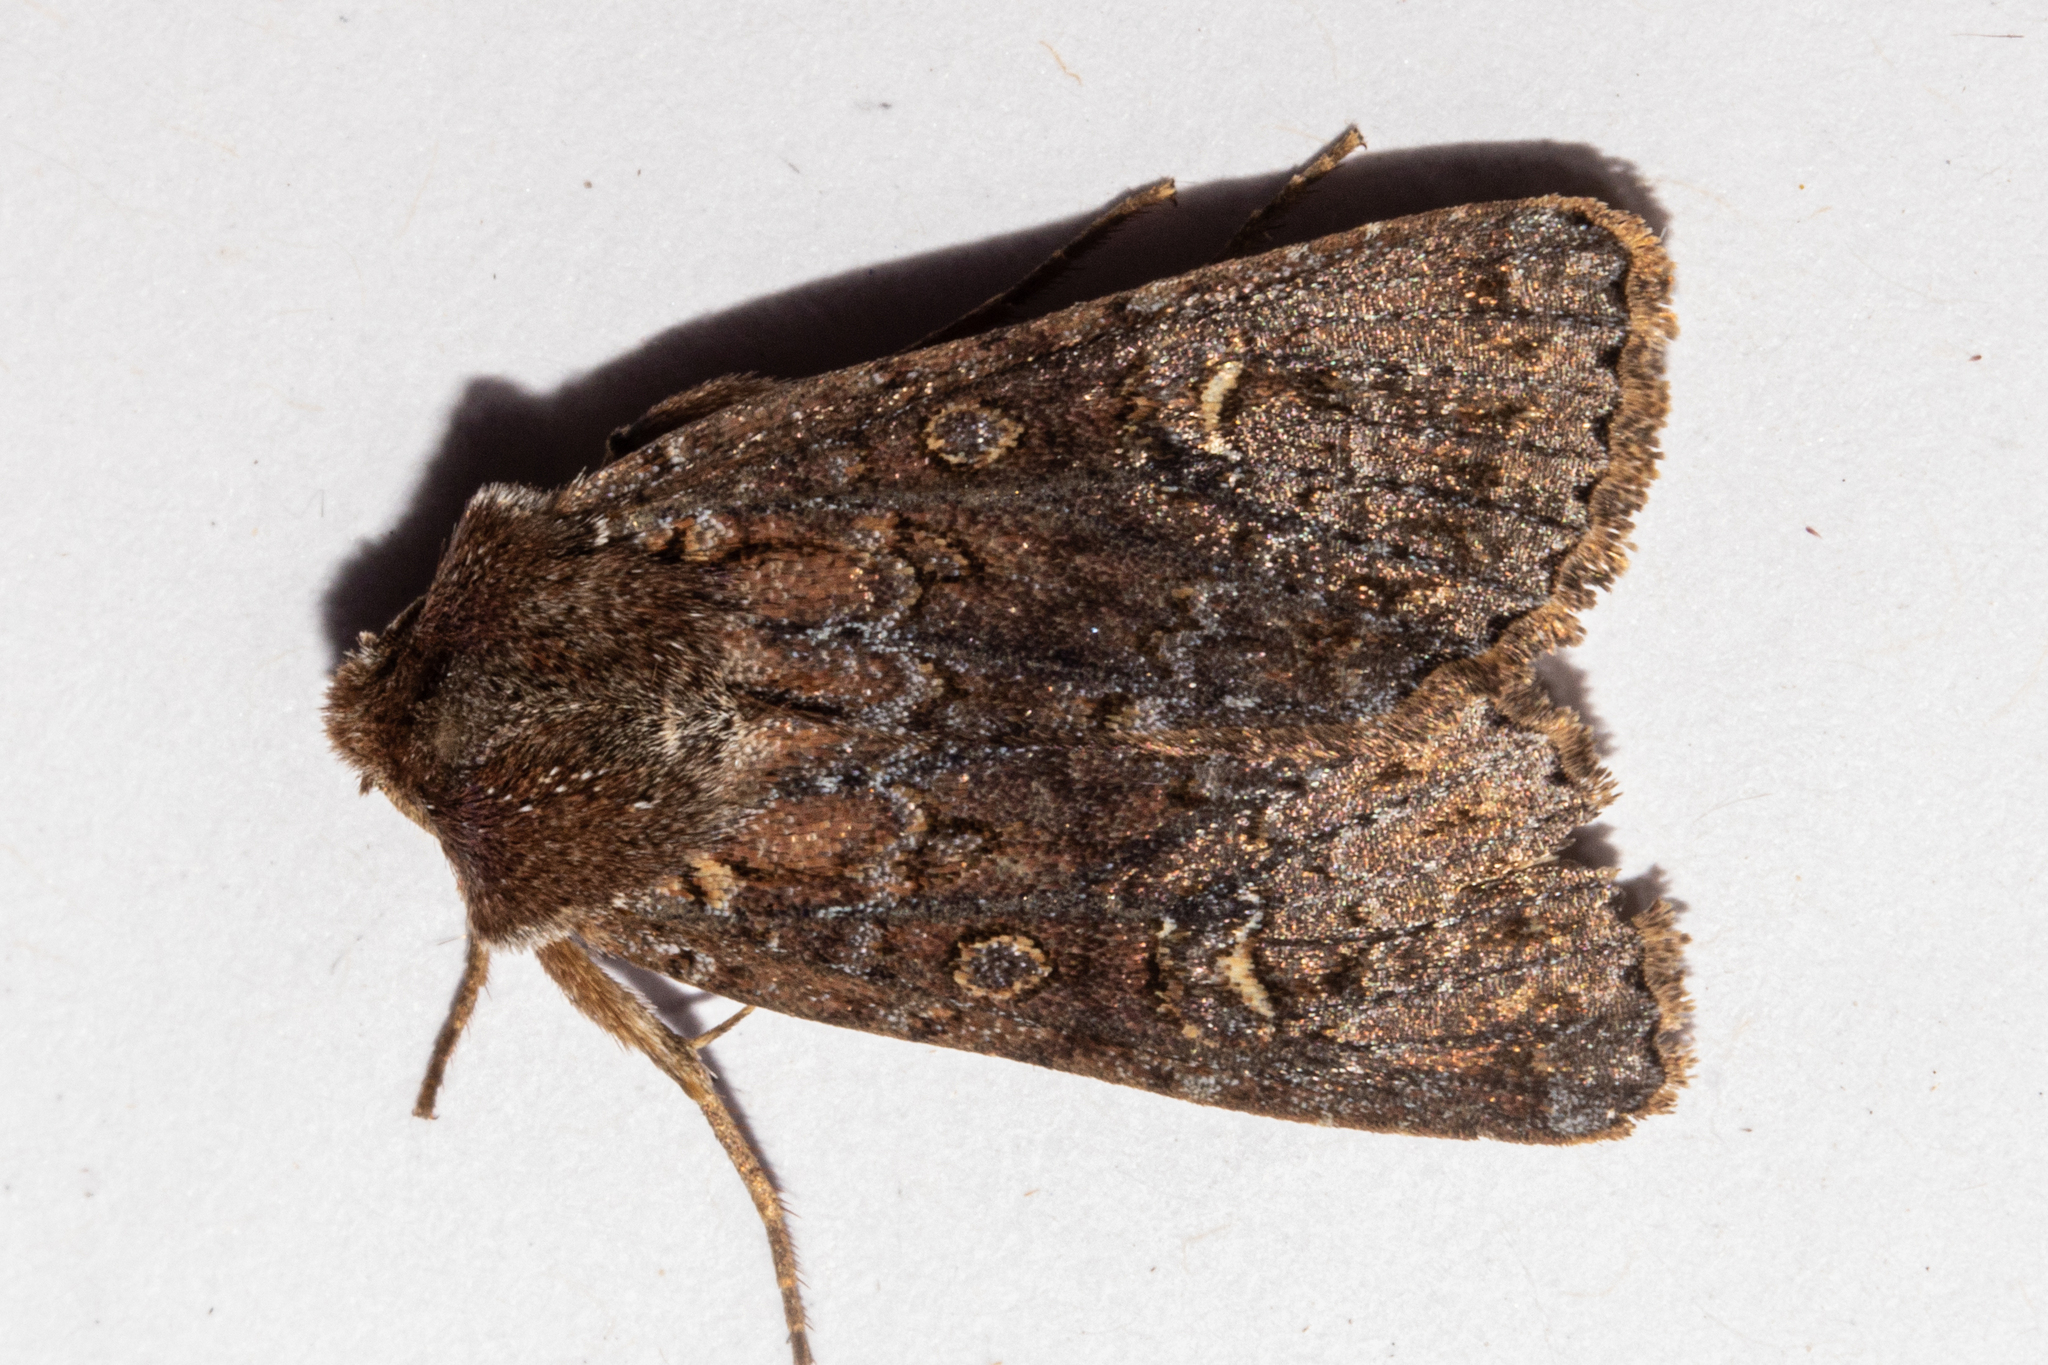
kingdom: Animalia
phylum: Arthropoda
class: Insecta
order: Lepidoptera
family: Noctuidae
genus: Ichneutica
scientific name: Ichneutica agorastis
